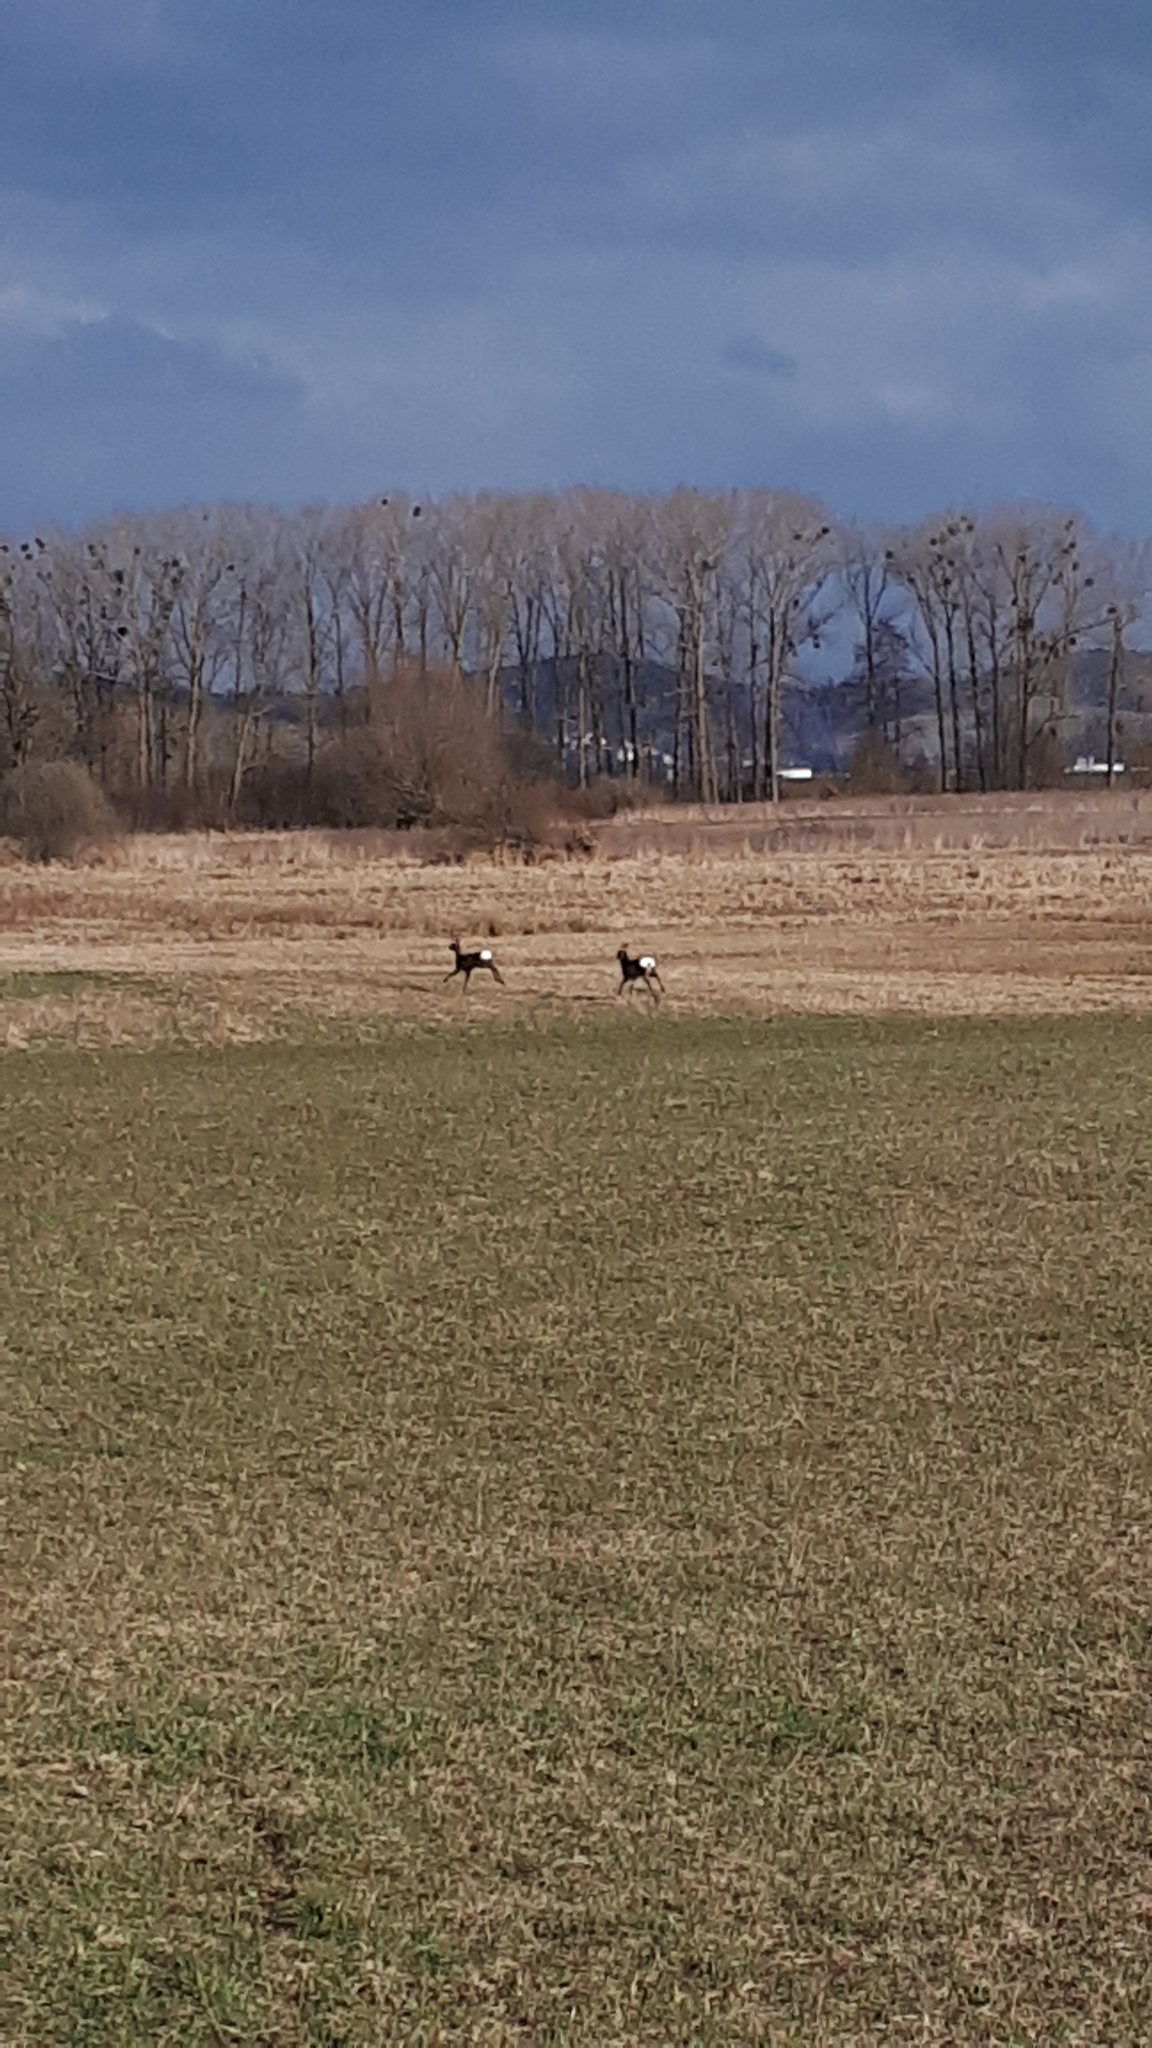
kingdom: Animalia
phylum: Chordata
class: Mammalia
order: Artiodactyla
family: Cervidae
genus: Capreolus
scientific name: Capreolus capreolus
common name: Western roe deer
